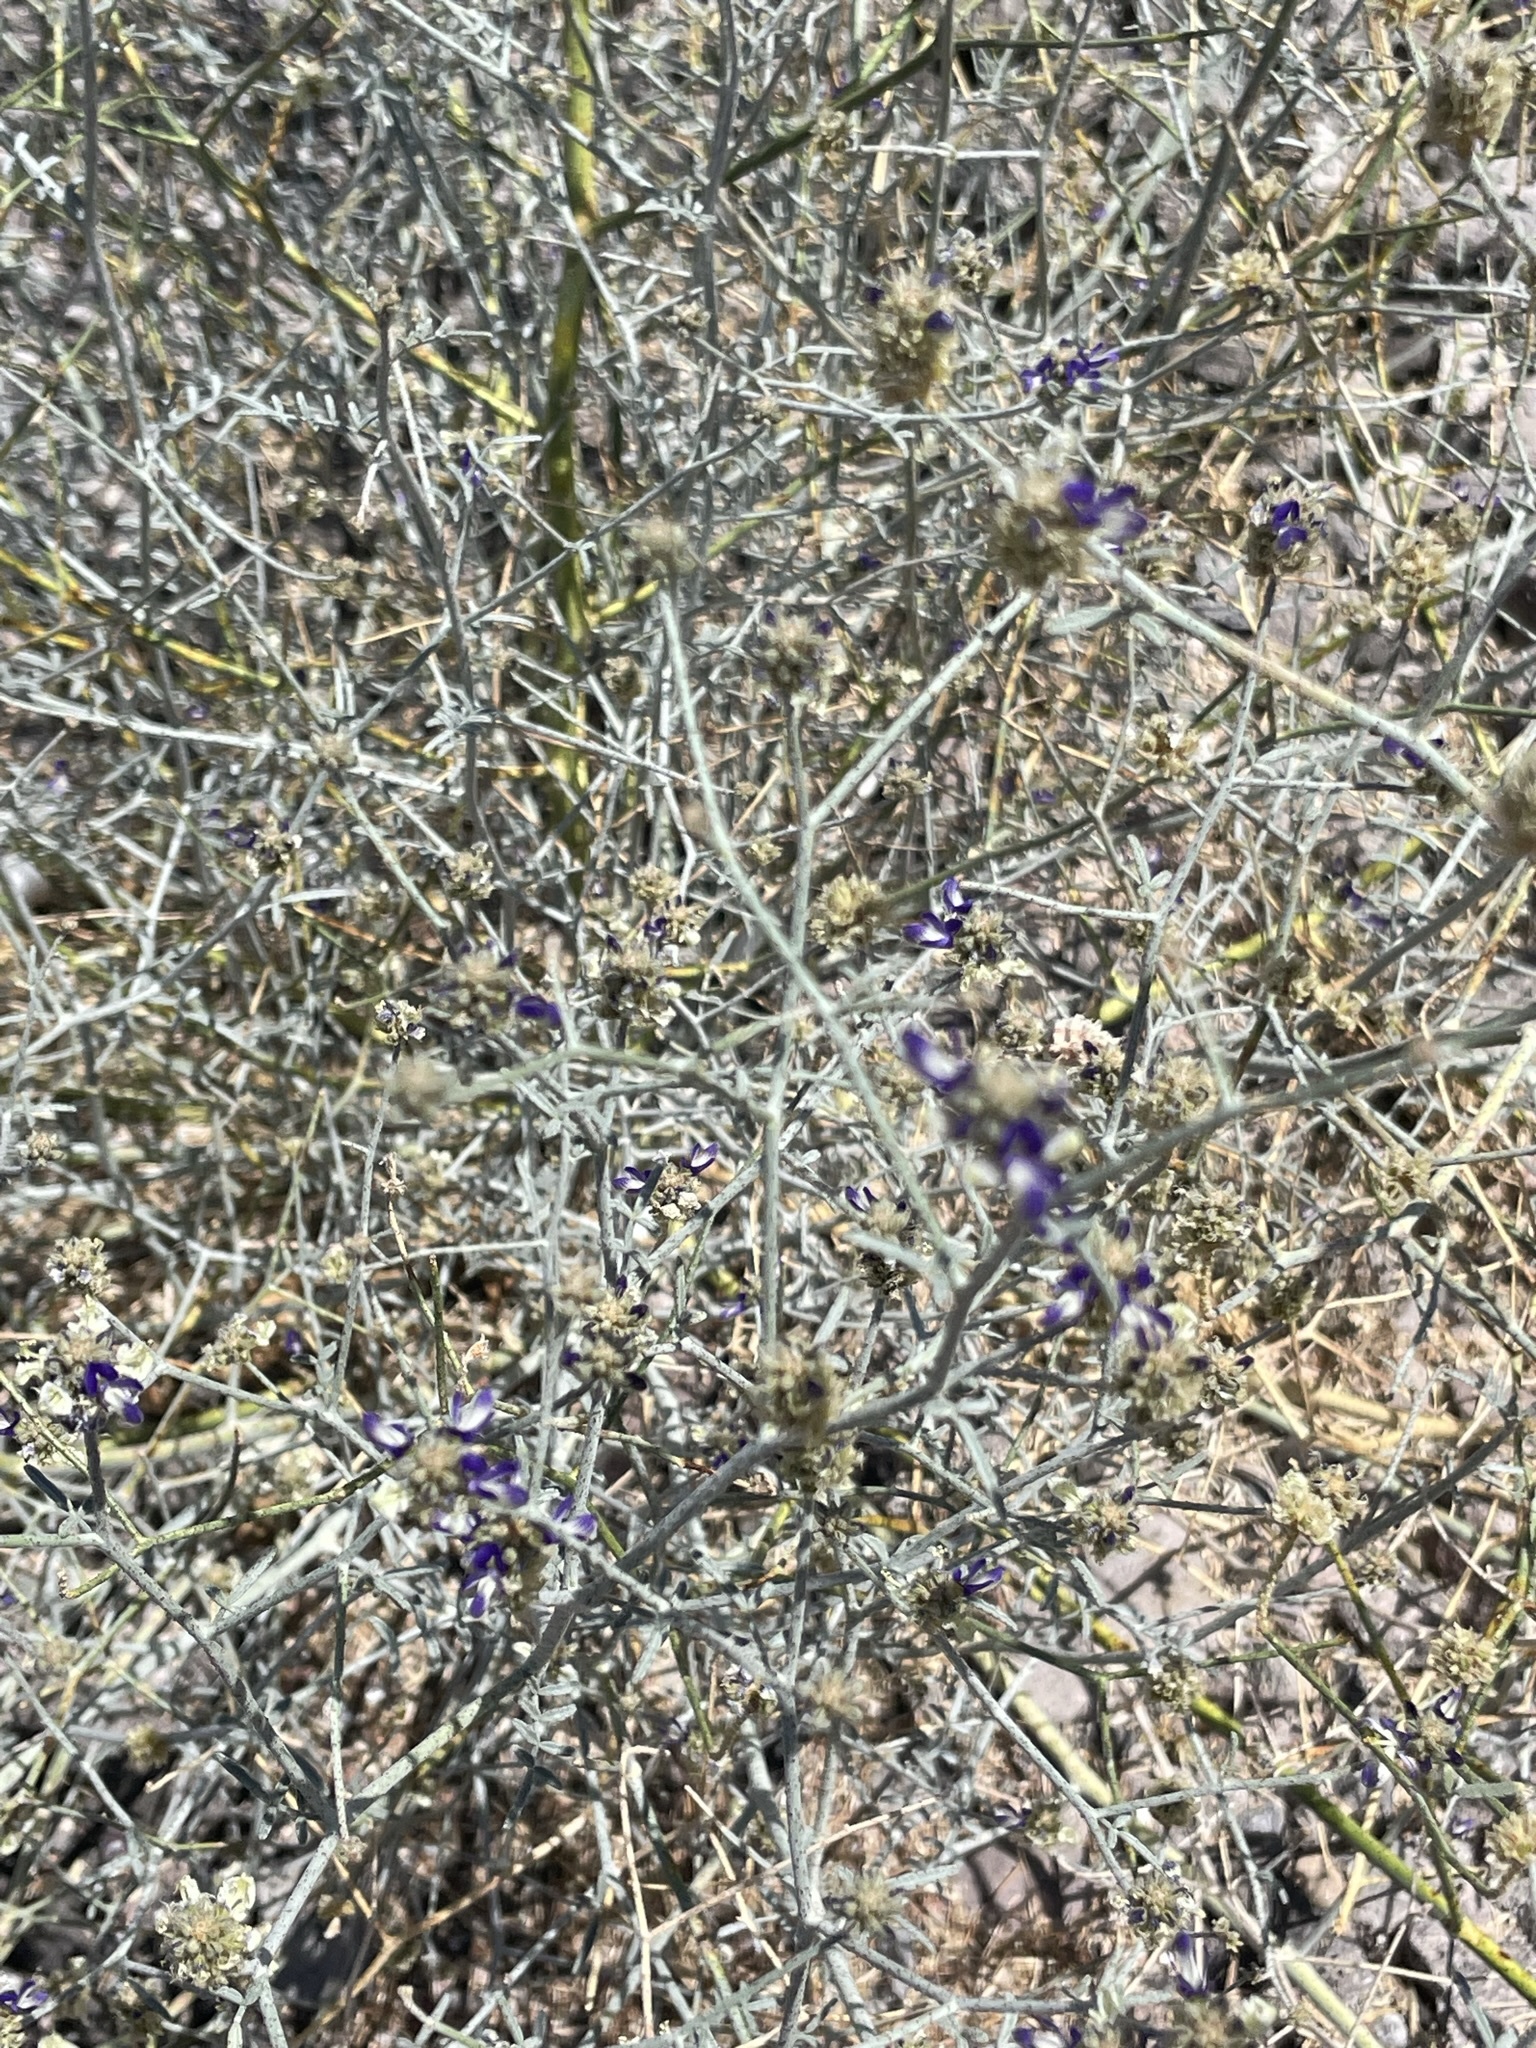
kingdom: Plantae
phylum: Tracheophyta
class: Magnoliopsida
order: Fabales
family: Fabaceae
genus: Psorothamnus
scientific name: Psorothamnus emoryi
